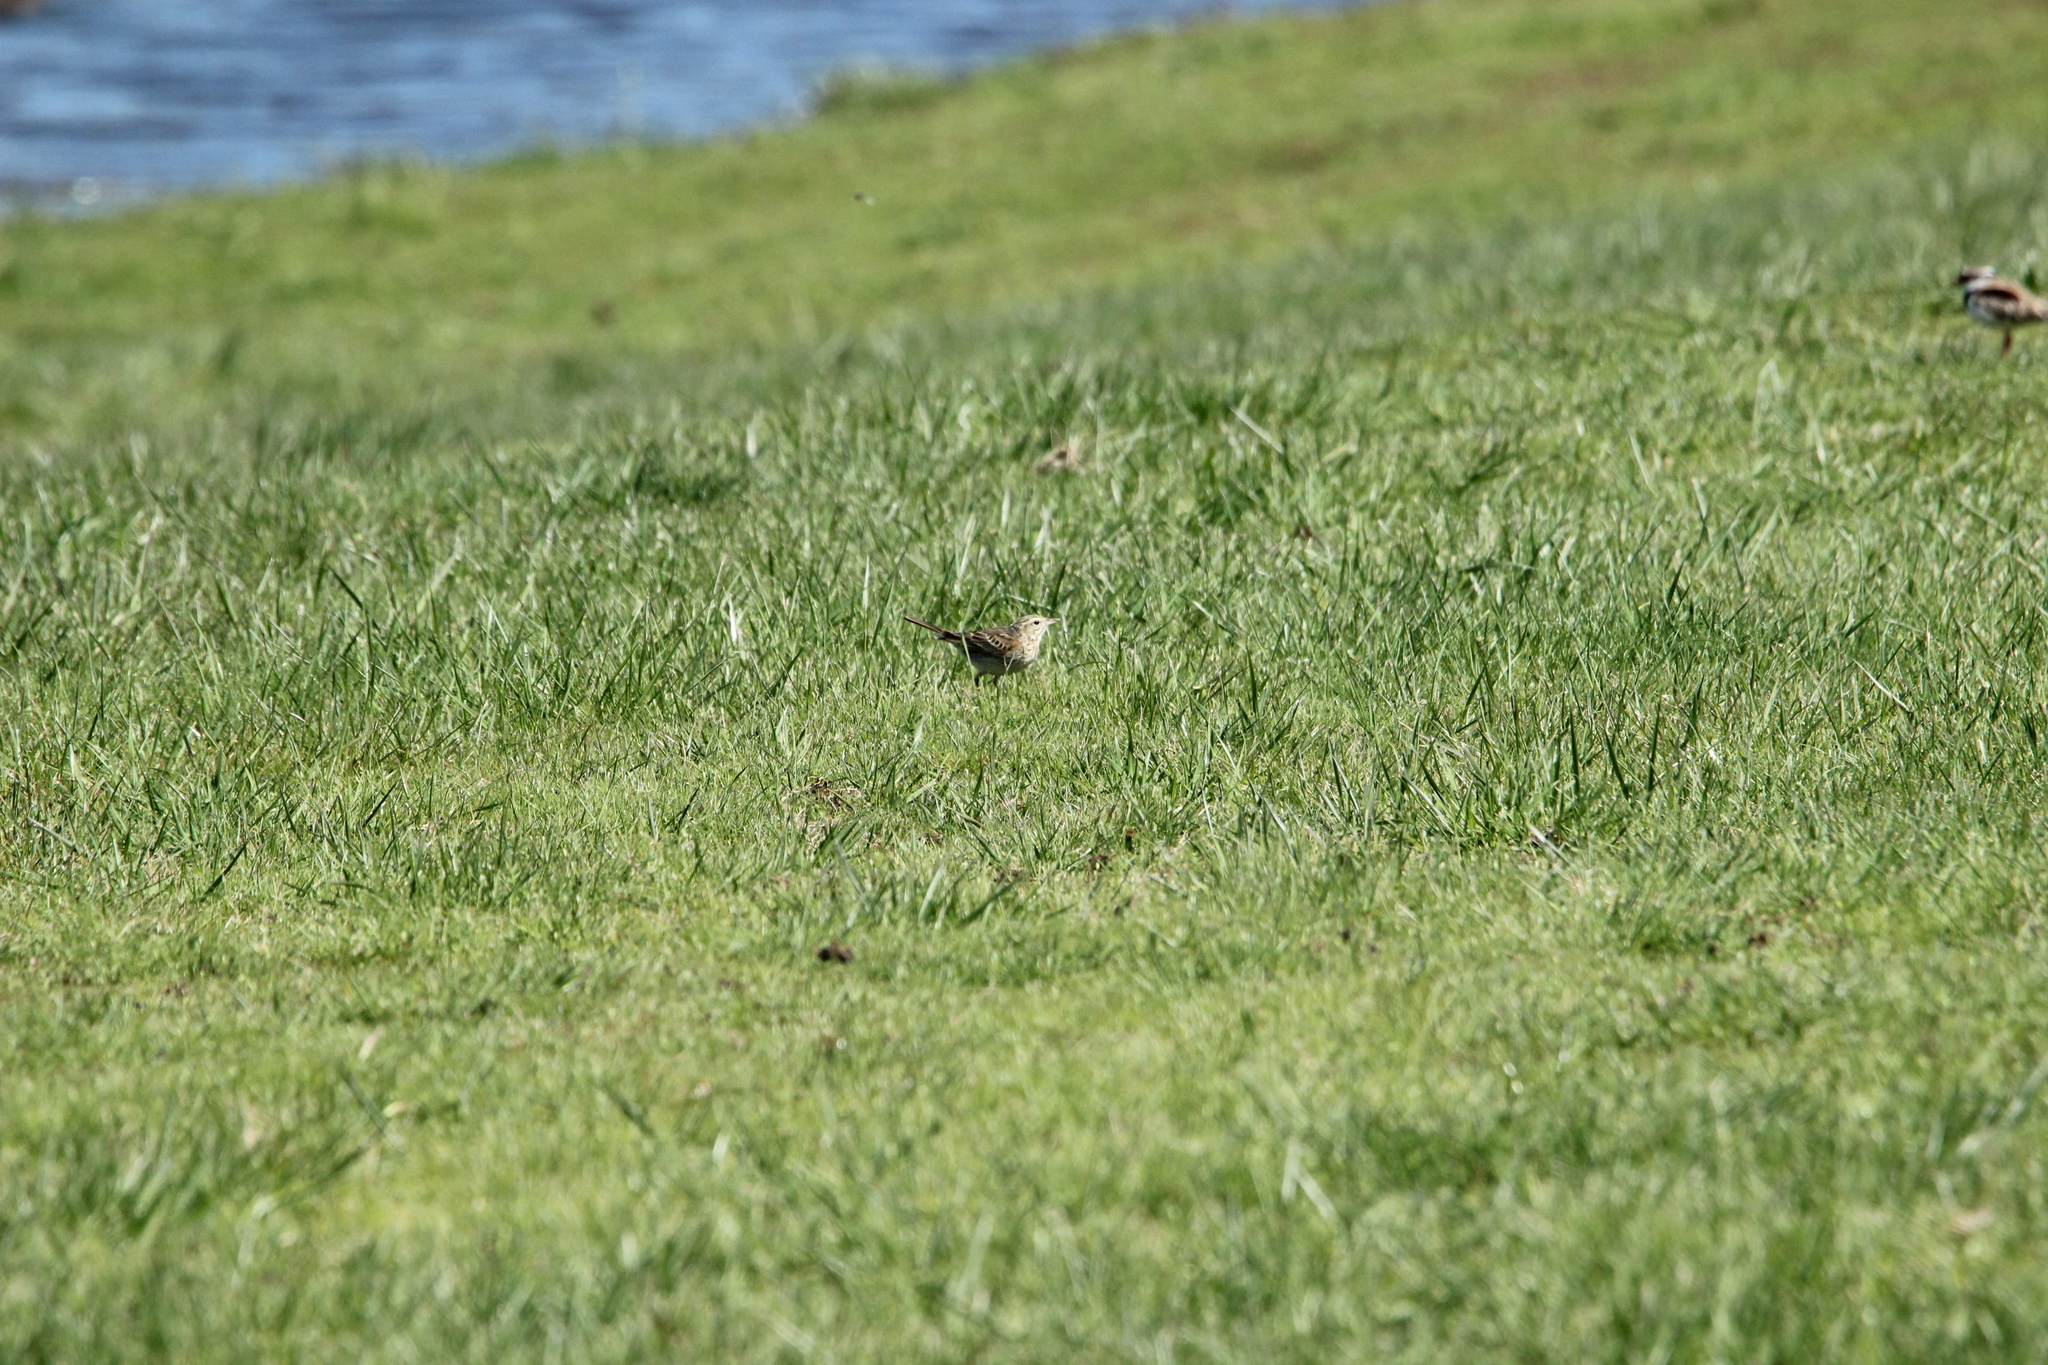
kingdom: Animalia
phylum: Chordata
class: Aves
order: Passeriformes
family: Motacillidae
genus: Anthus
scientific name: Anthus australis
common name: Australian pipit
